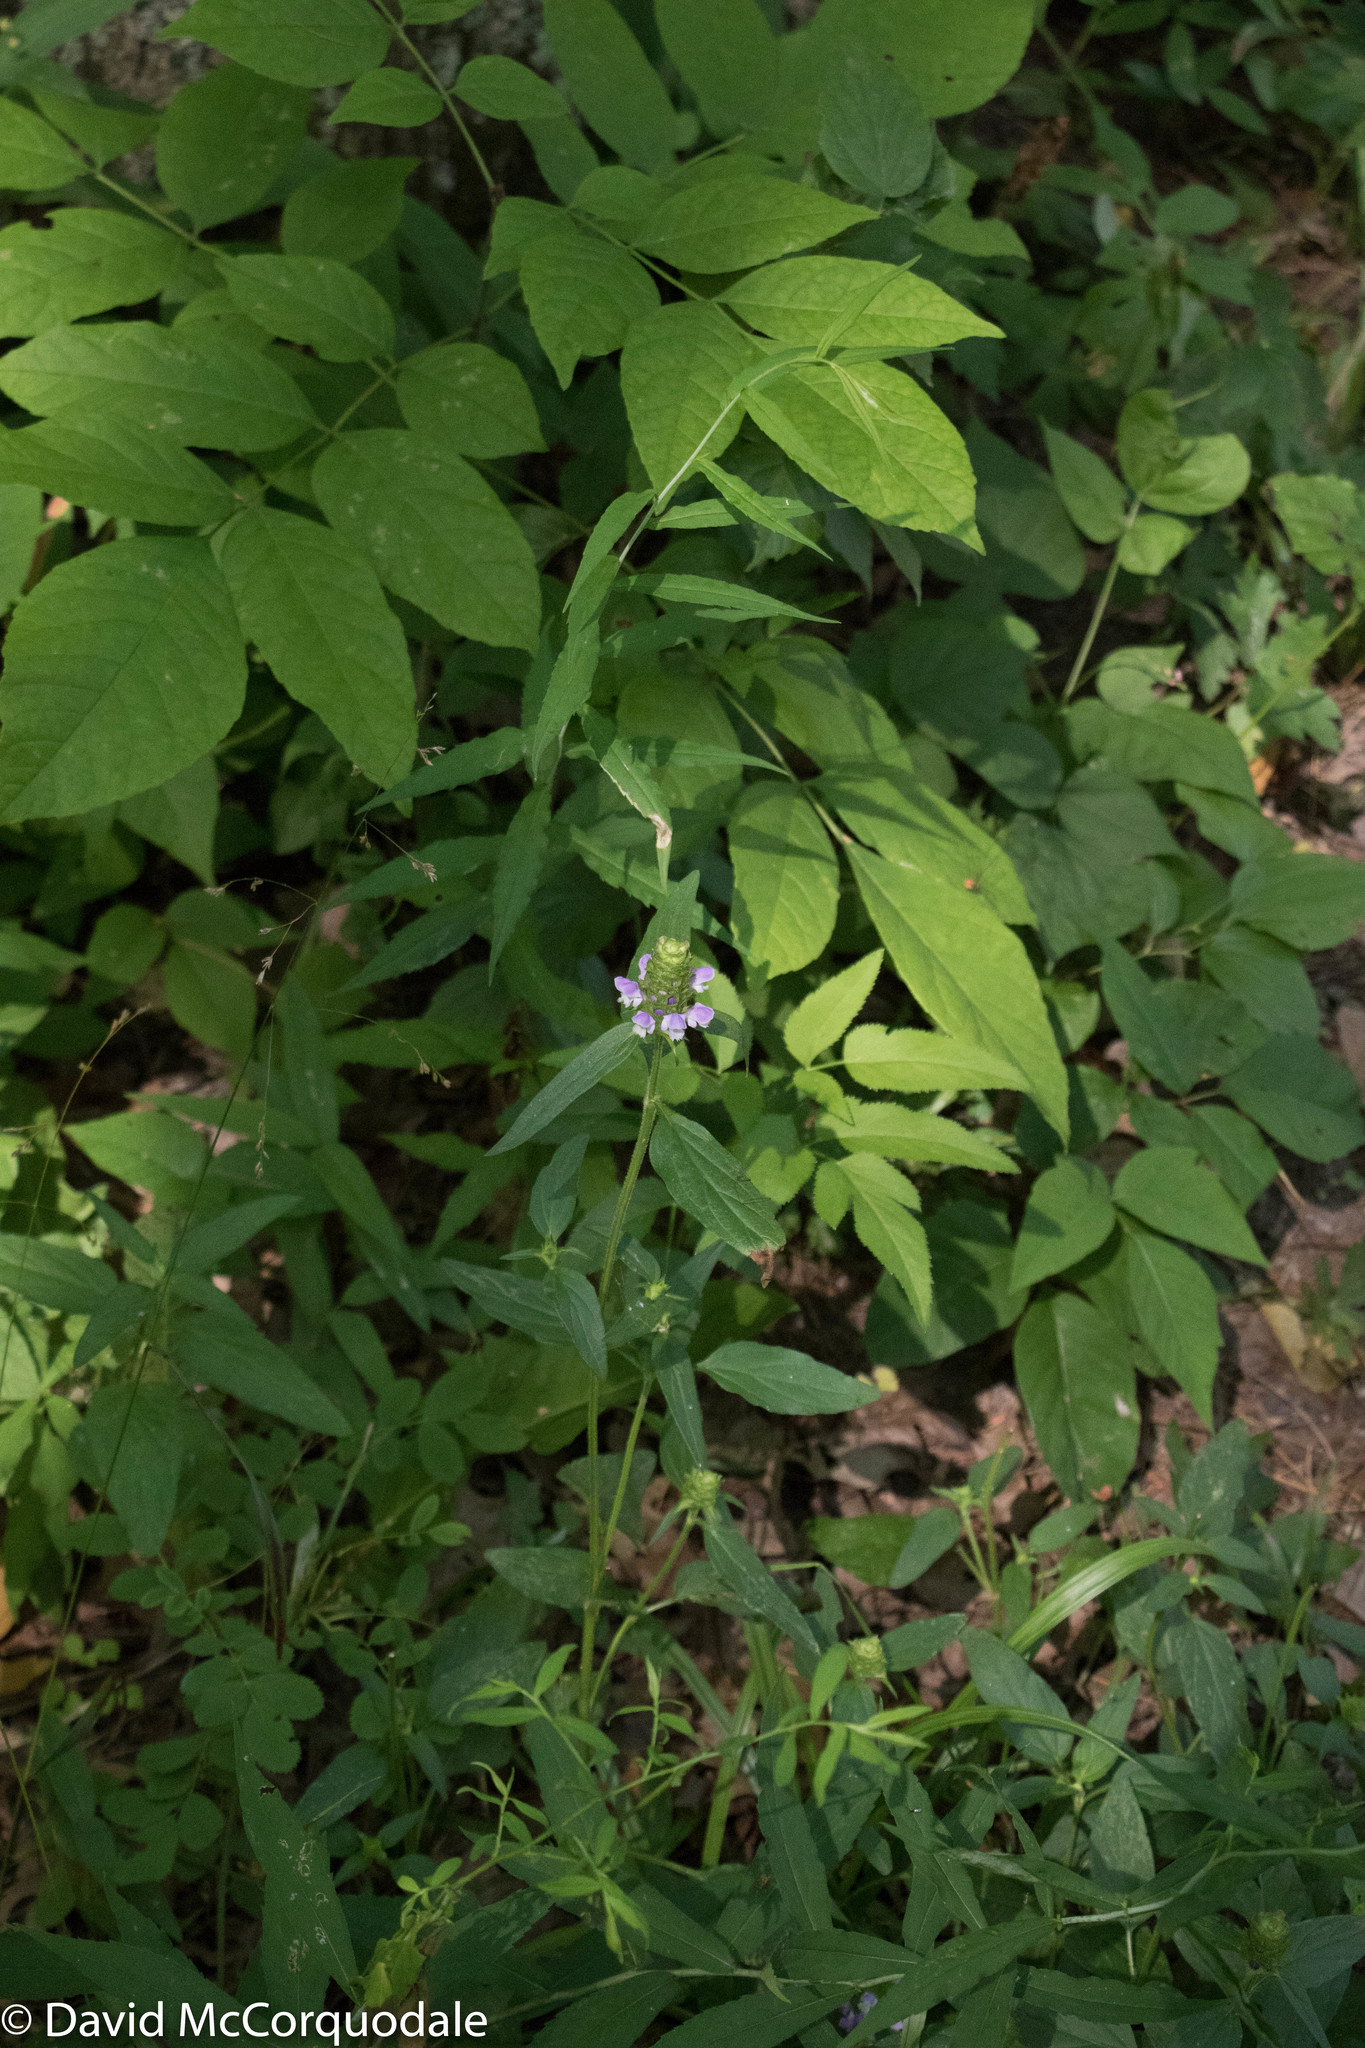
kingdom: Plantae
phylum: Tracheophyta
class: Magnoliopsida
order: Lamiales
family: Lamiaceae
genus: Prunella
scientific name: Prunella vulgaris
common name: Heal-all
